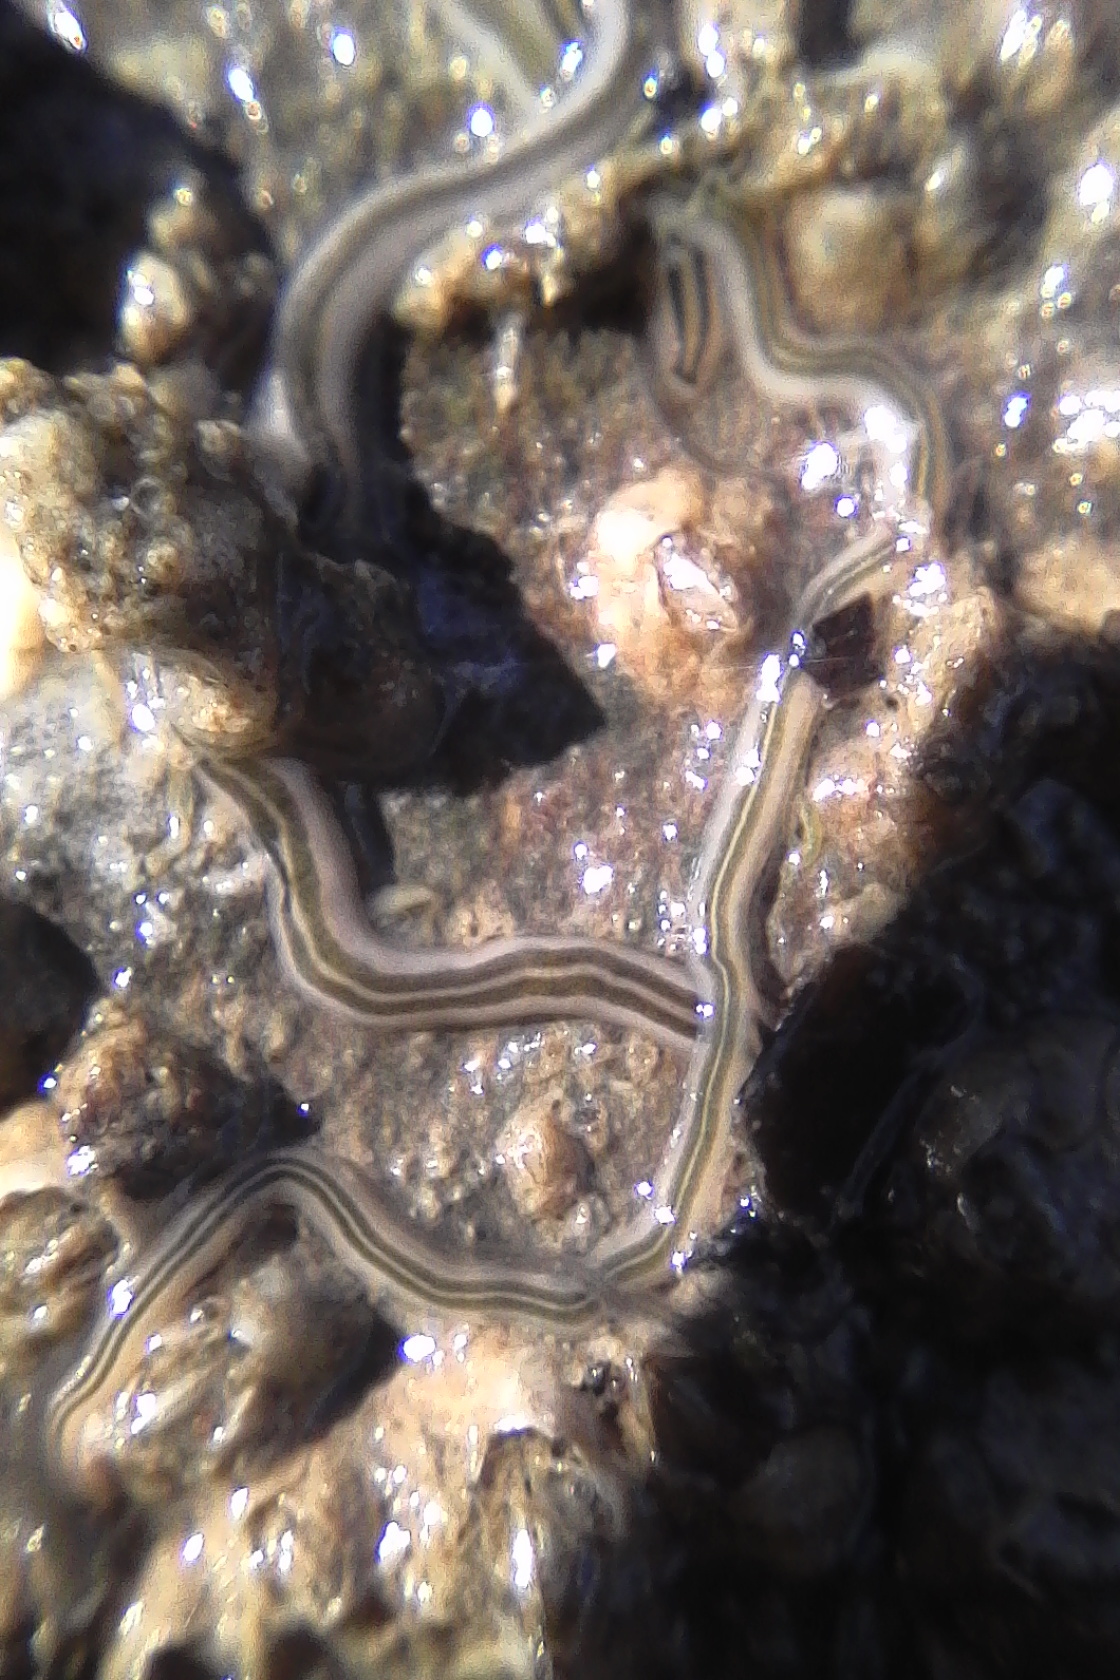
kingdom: Animalia
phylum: Nemertea
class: Hoplonemertea
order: Monostilifera
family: Emplectonematidae
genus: Nemertopsis
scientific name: Nemertopsis bivittata
